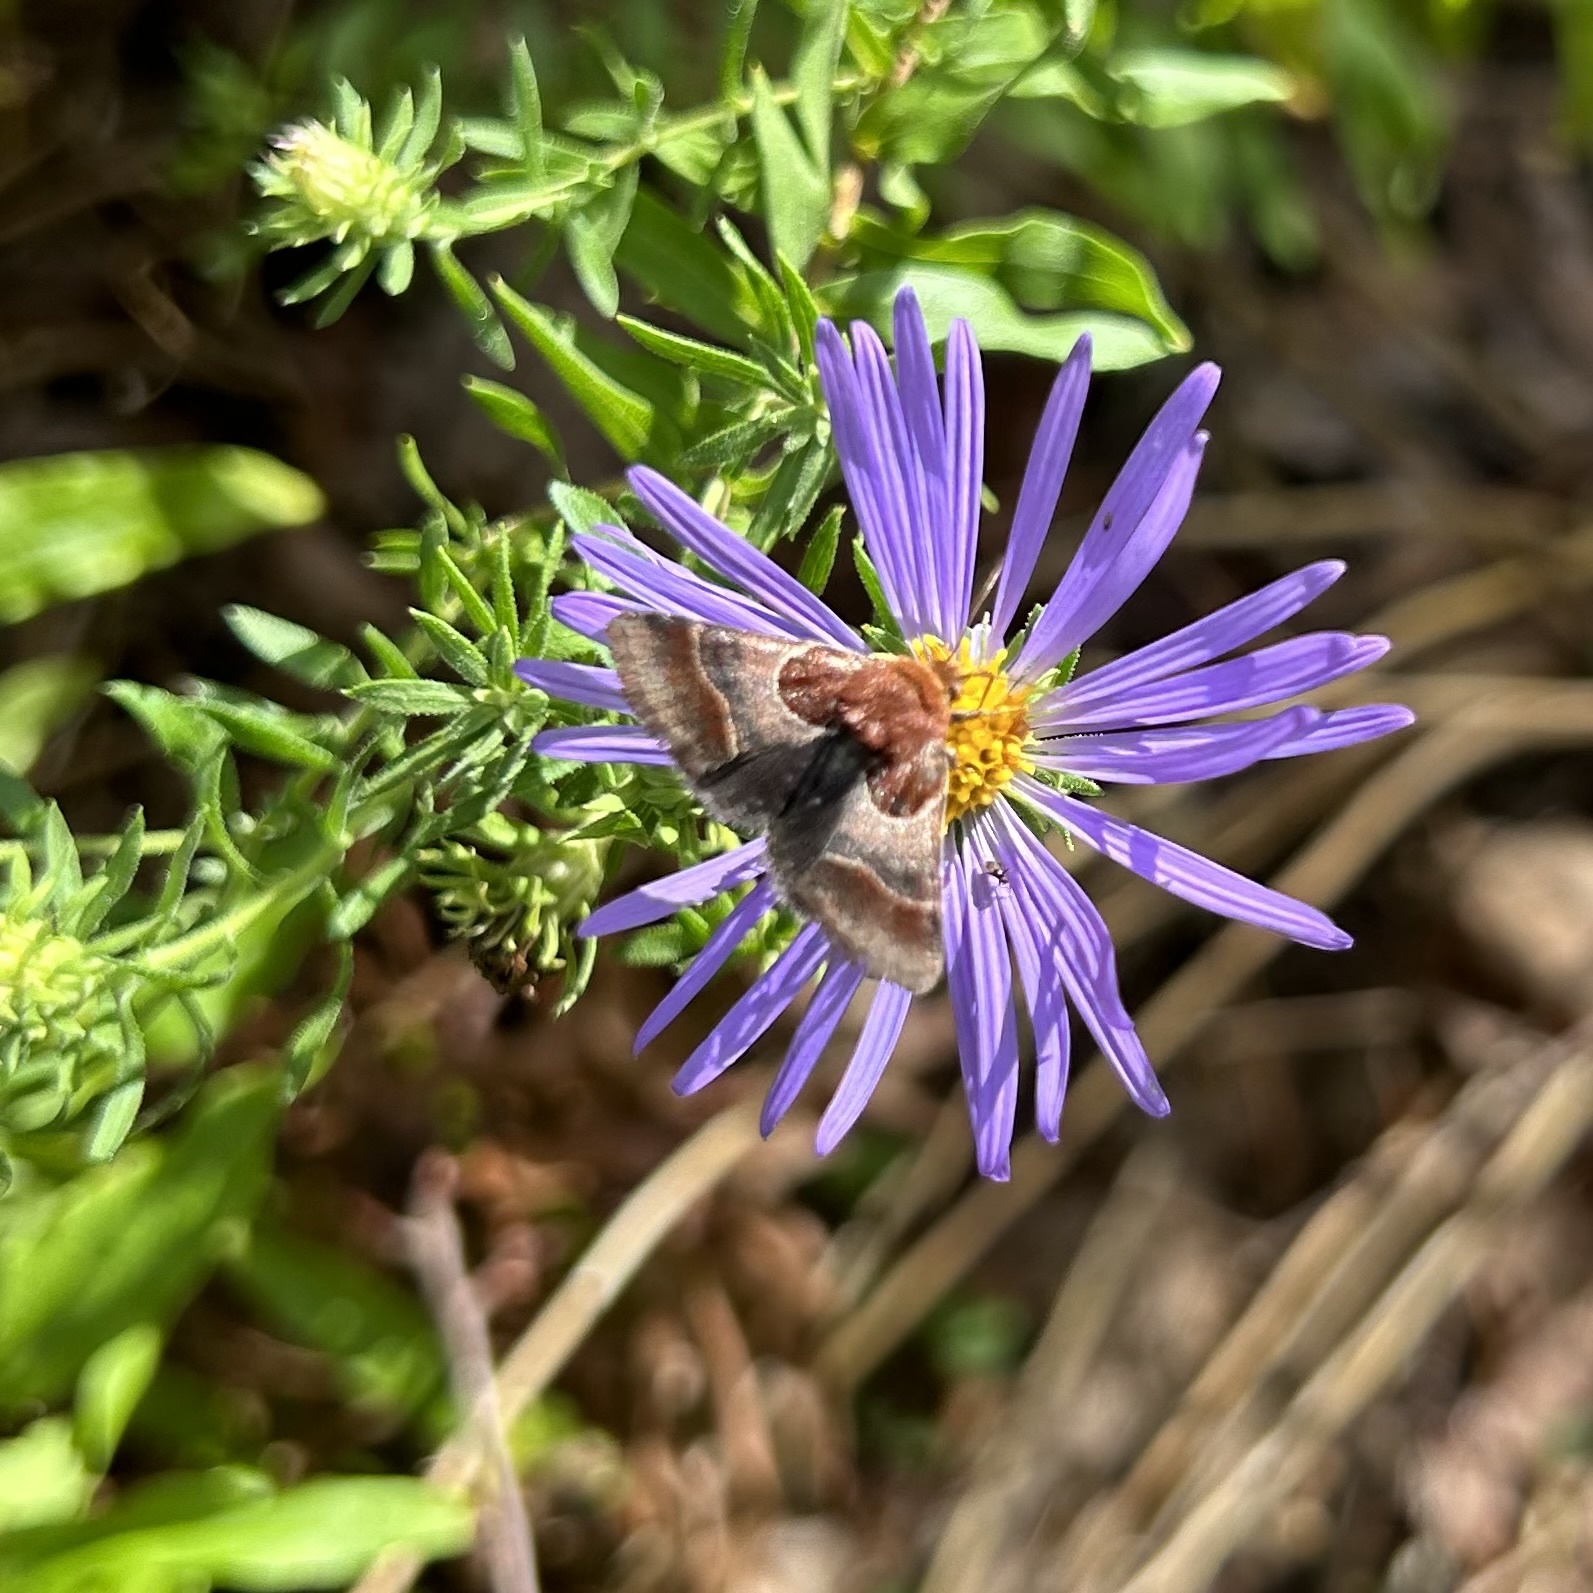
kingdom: Animalia
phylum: Arthropoda
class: Insecta
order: Lepidoptera
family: Noctuidae
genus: Schinia
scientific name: Schinia arcigera
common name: Arcigera flower moth
